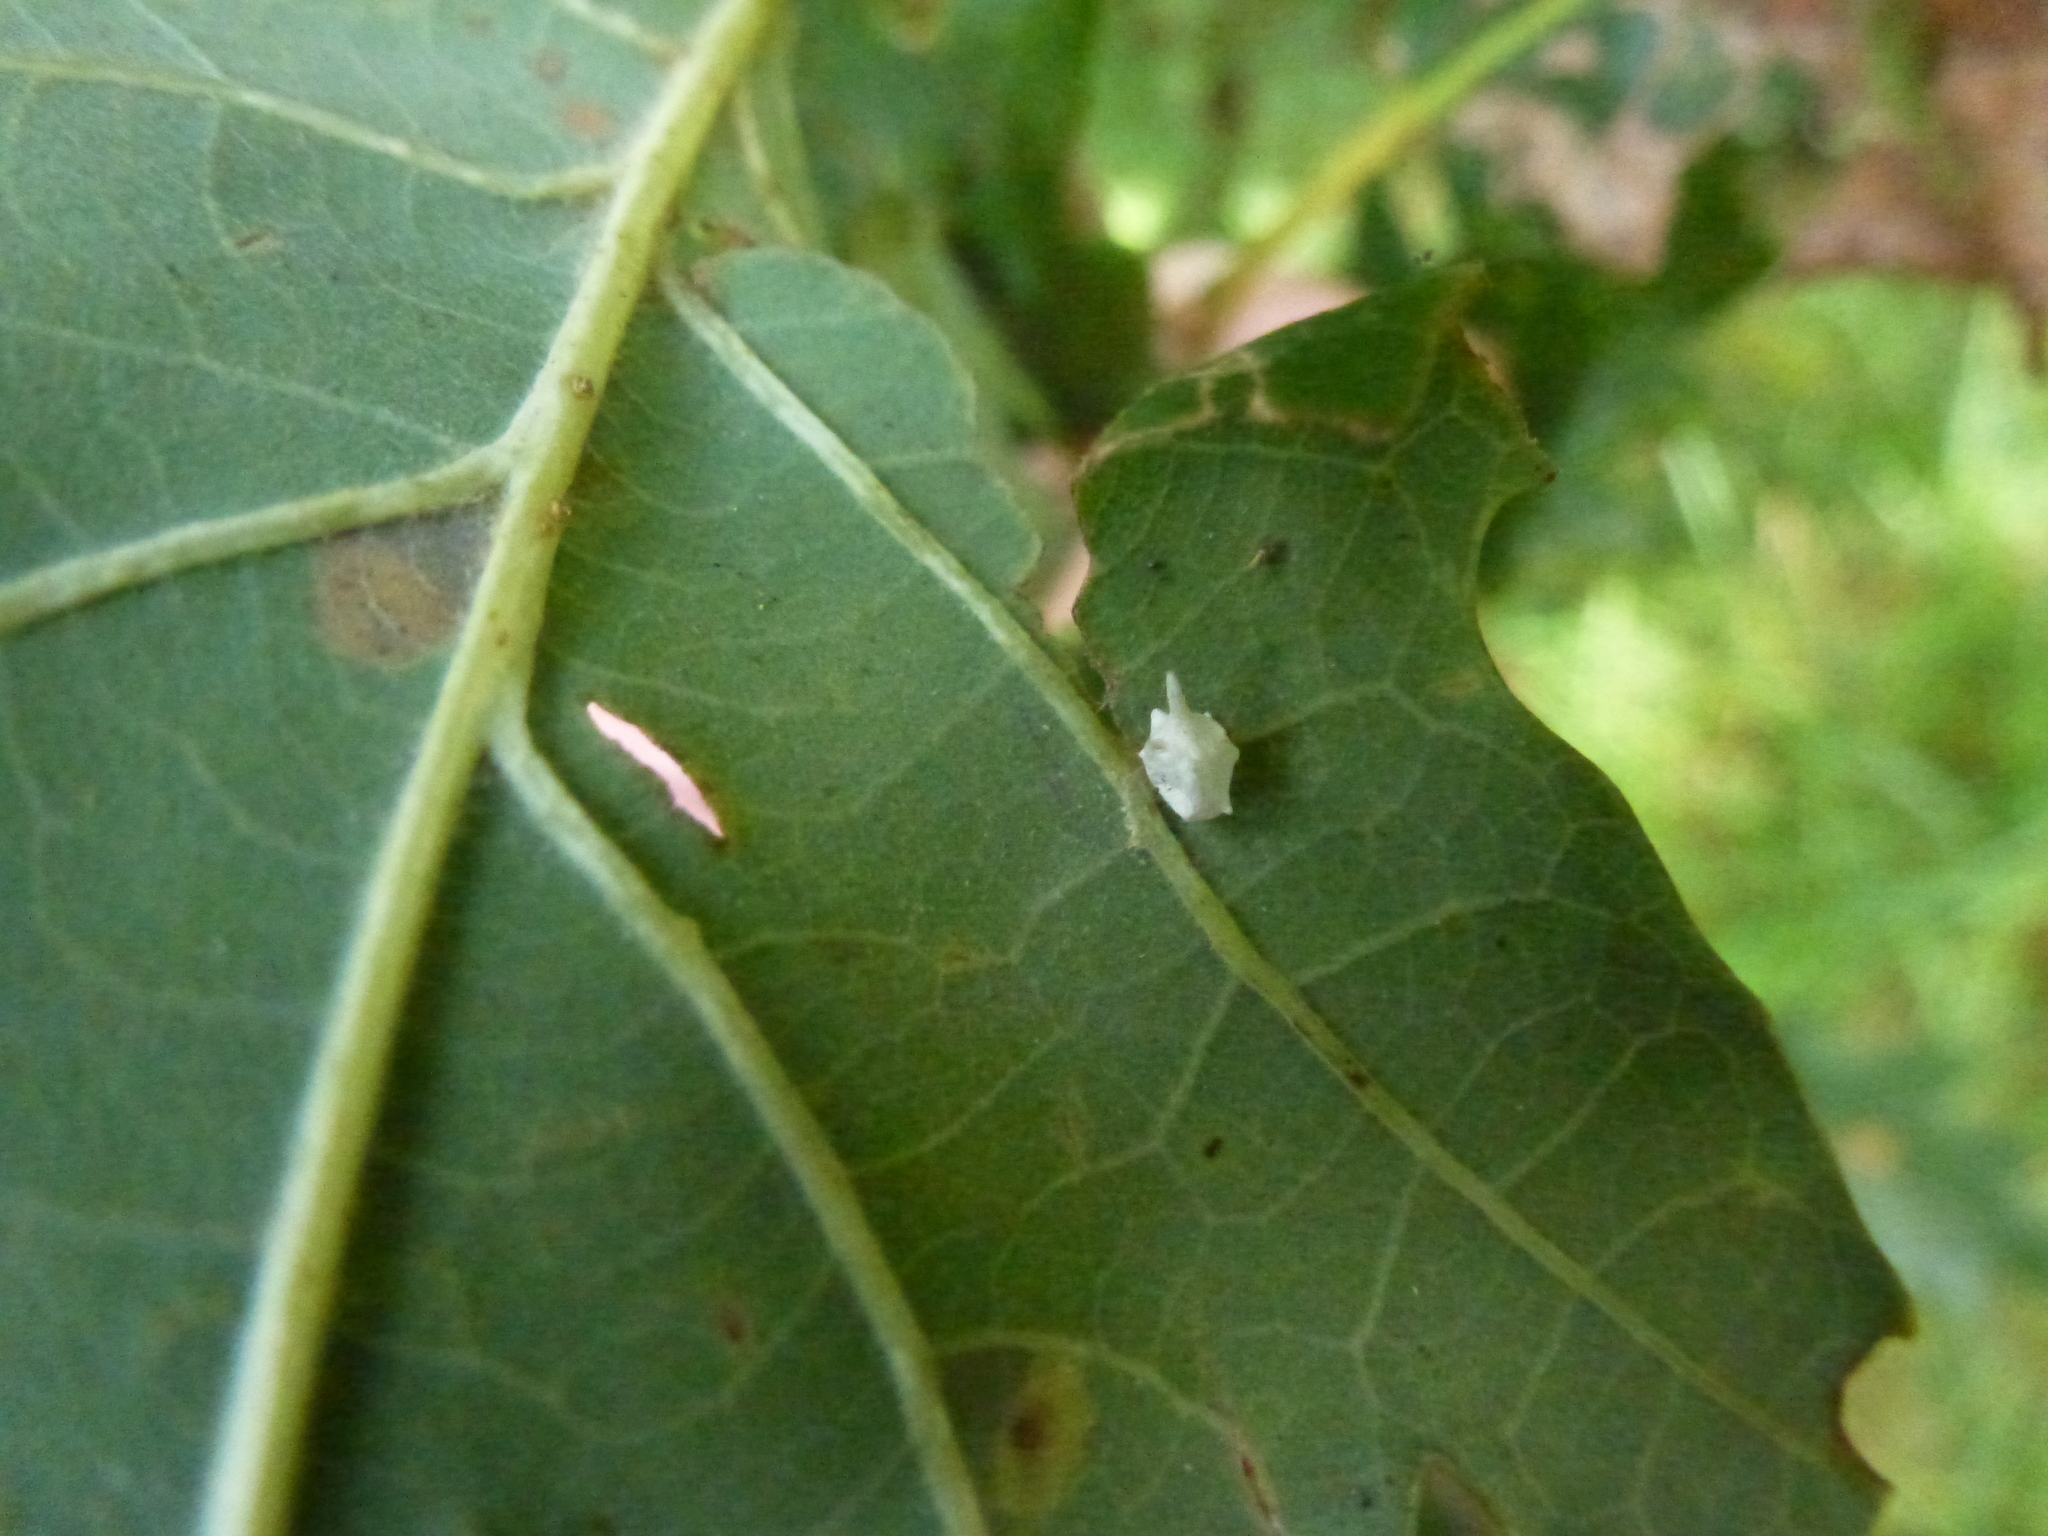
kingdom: Animalia
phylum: Arthropoda
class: Arachnida
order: Araneae
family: Theridiidae
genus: Paidiscura
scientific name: Paidiscura pallens
